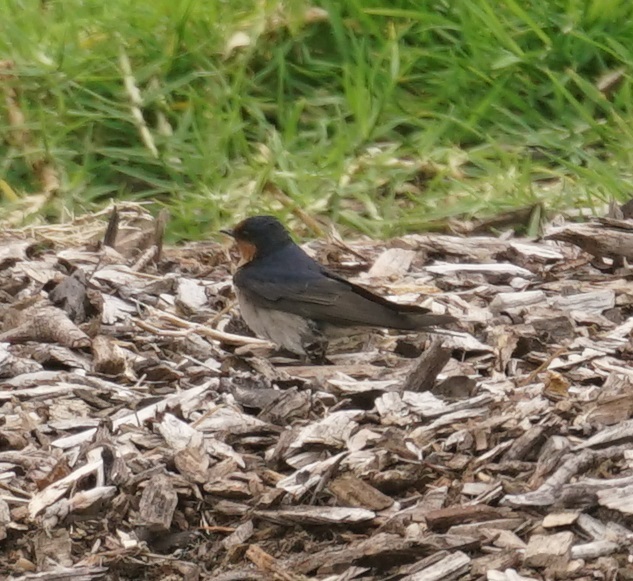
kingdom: Animalia
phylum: Chordata
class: Aves
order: Passeriformes
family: Hirundinidae
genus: Hirundo
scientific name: Hirundo neoxena
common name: Welcome swallow
